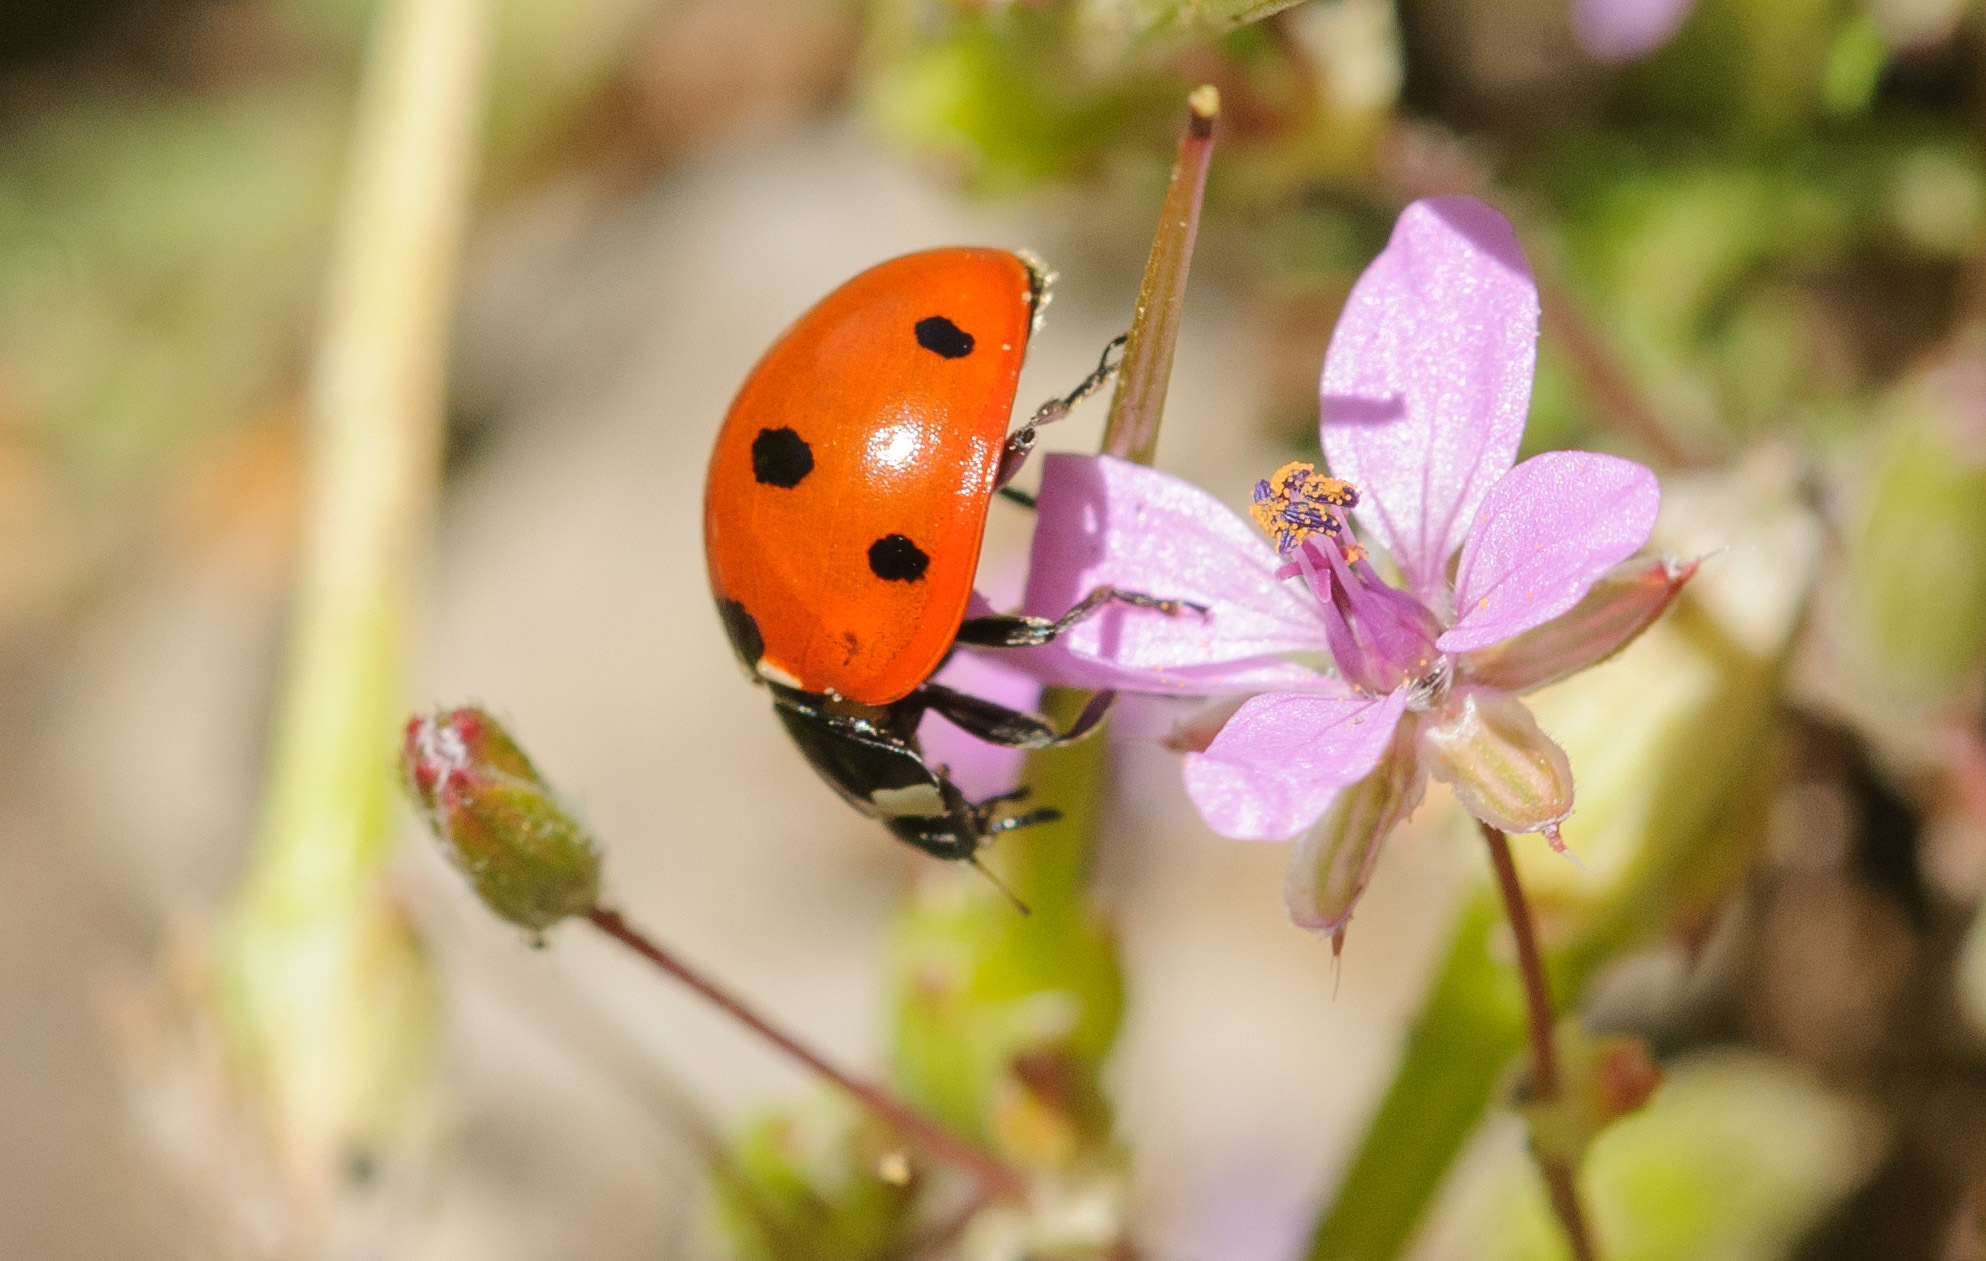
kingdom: Animalia
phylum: Arthropoda
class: Insecta
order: Coleoptera
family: Coccinellidae
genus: Coccinella
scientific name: Coccinella septempunctata
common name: Sevenspotted lady beetle
